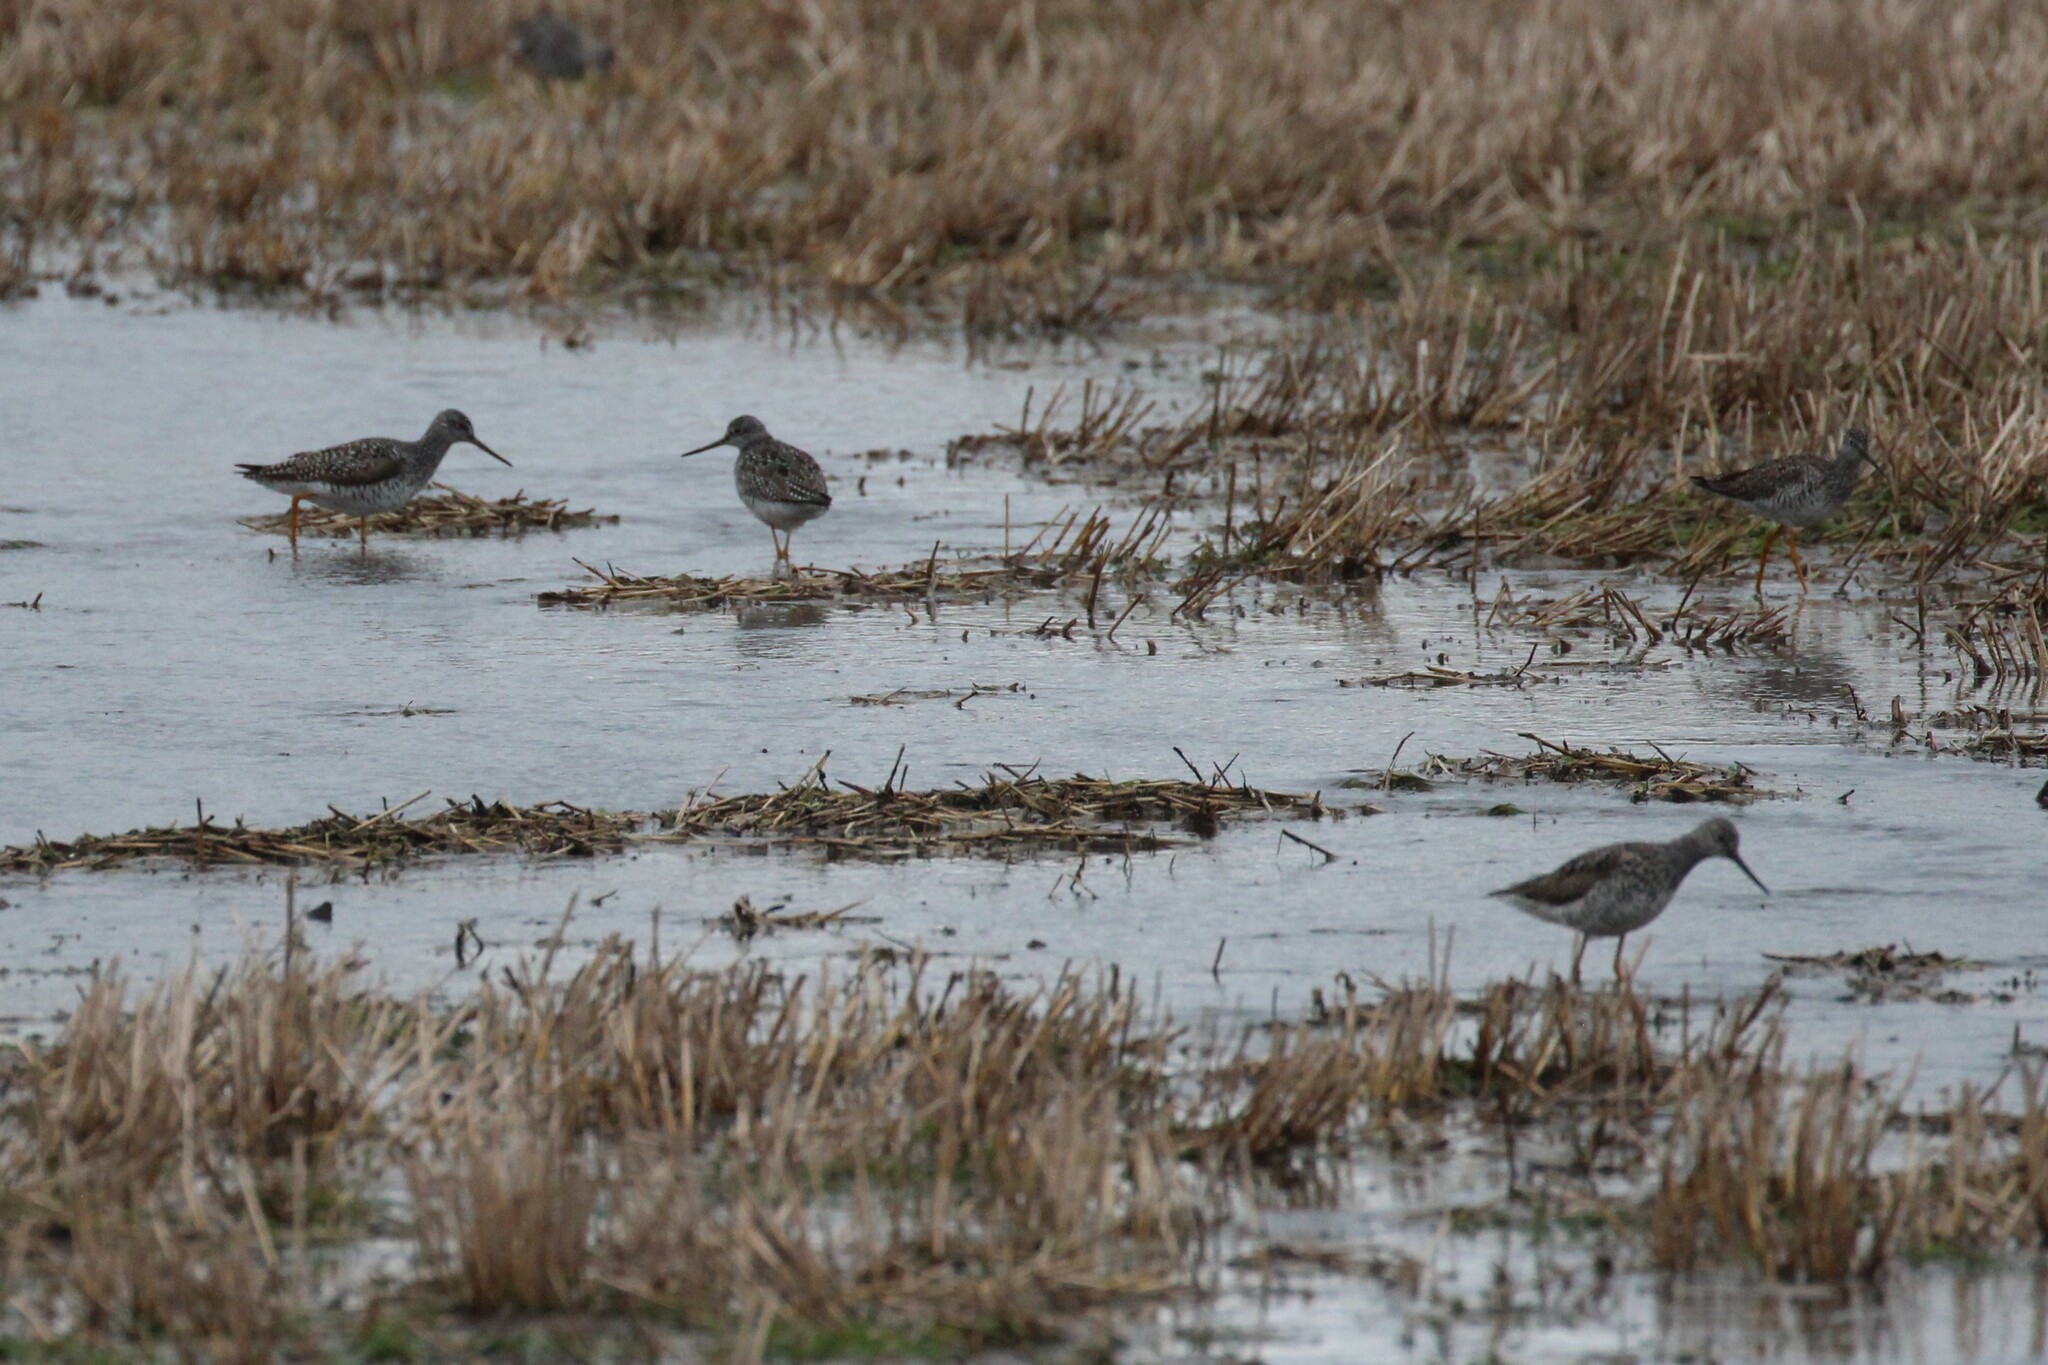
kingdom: Animalia
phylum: Chordata
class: Aves
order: Charadriiformes
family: Scolopacidae
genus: Tringa
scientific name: Tringa melanoleuca
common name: Greater yellowlegs
